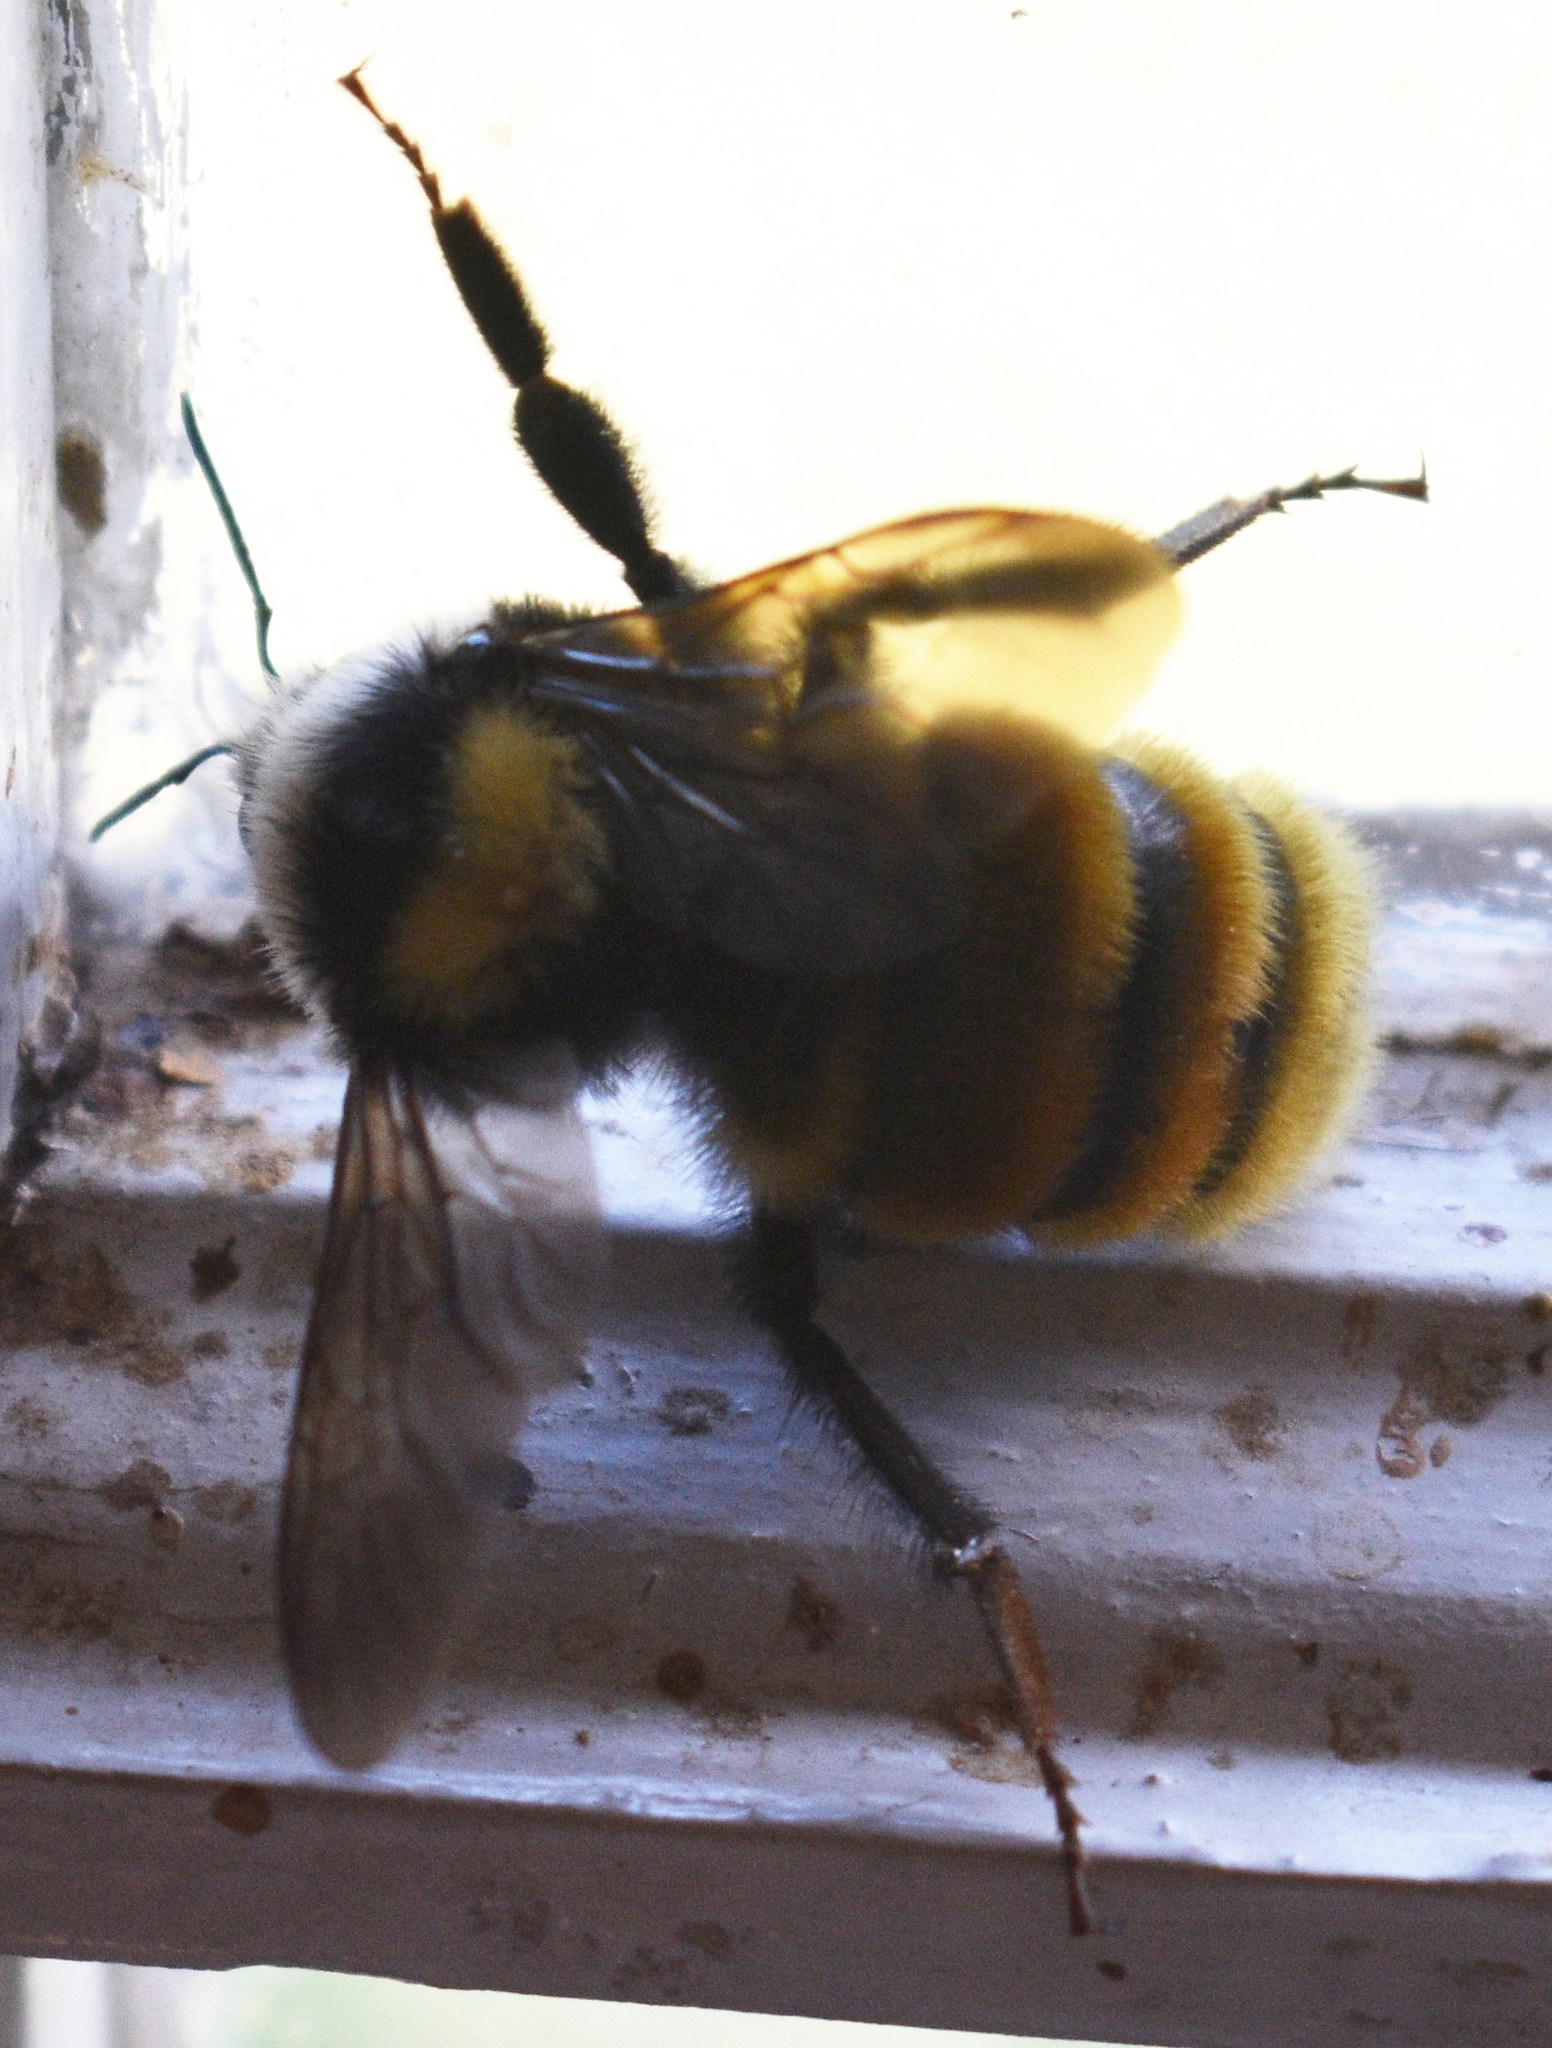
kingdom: Animalia
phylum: Arthropoda
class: Insecta
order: Hymenoptera
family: Apidae
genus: Bombus
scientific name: Bombus appositus
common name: White-shouldered bumble bee
